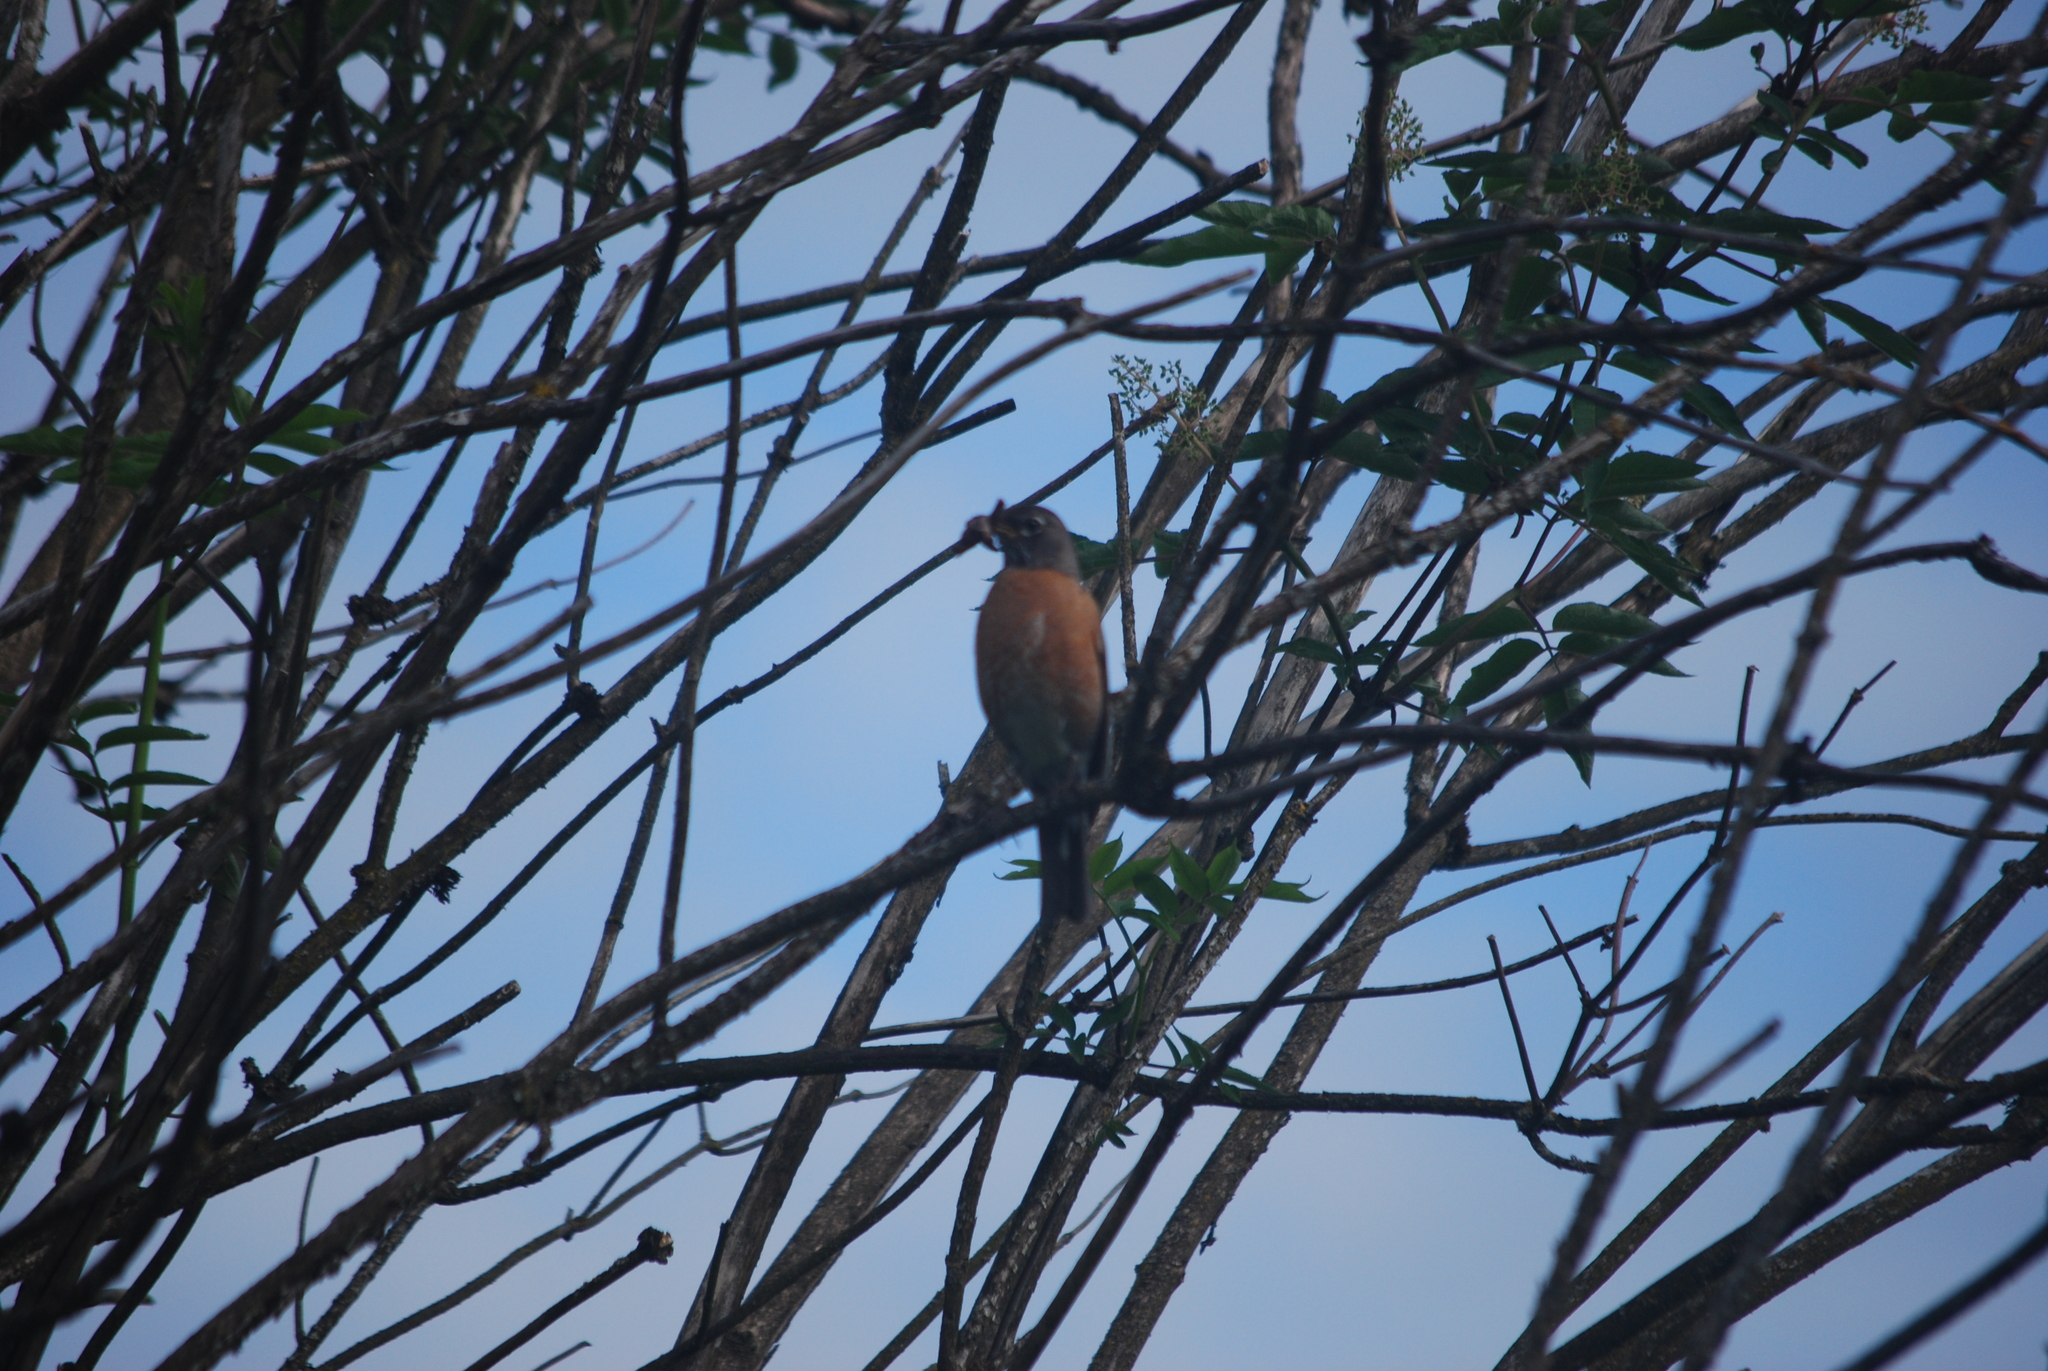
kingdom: Animalia
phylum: Chordata
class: Aves
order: Passeriformes
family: Turdidae
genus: Turdus
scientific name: Turdus migratorius
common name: American robin
